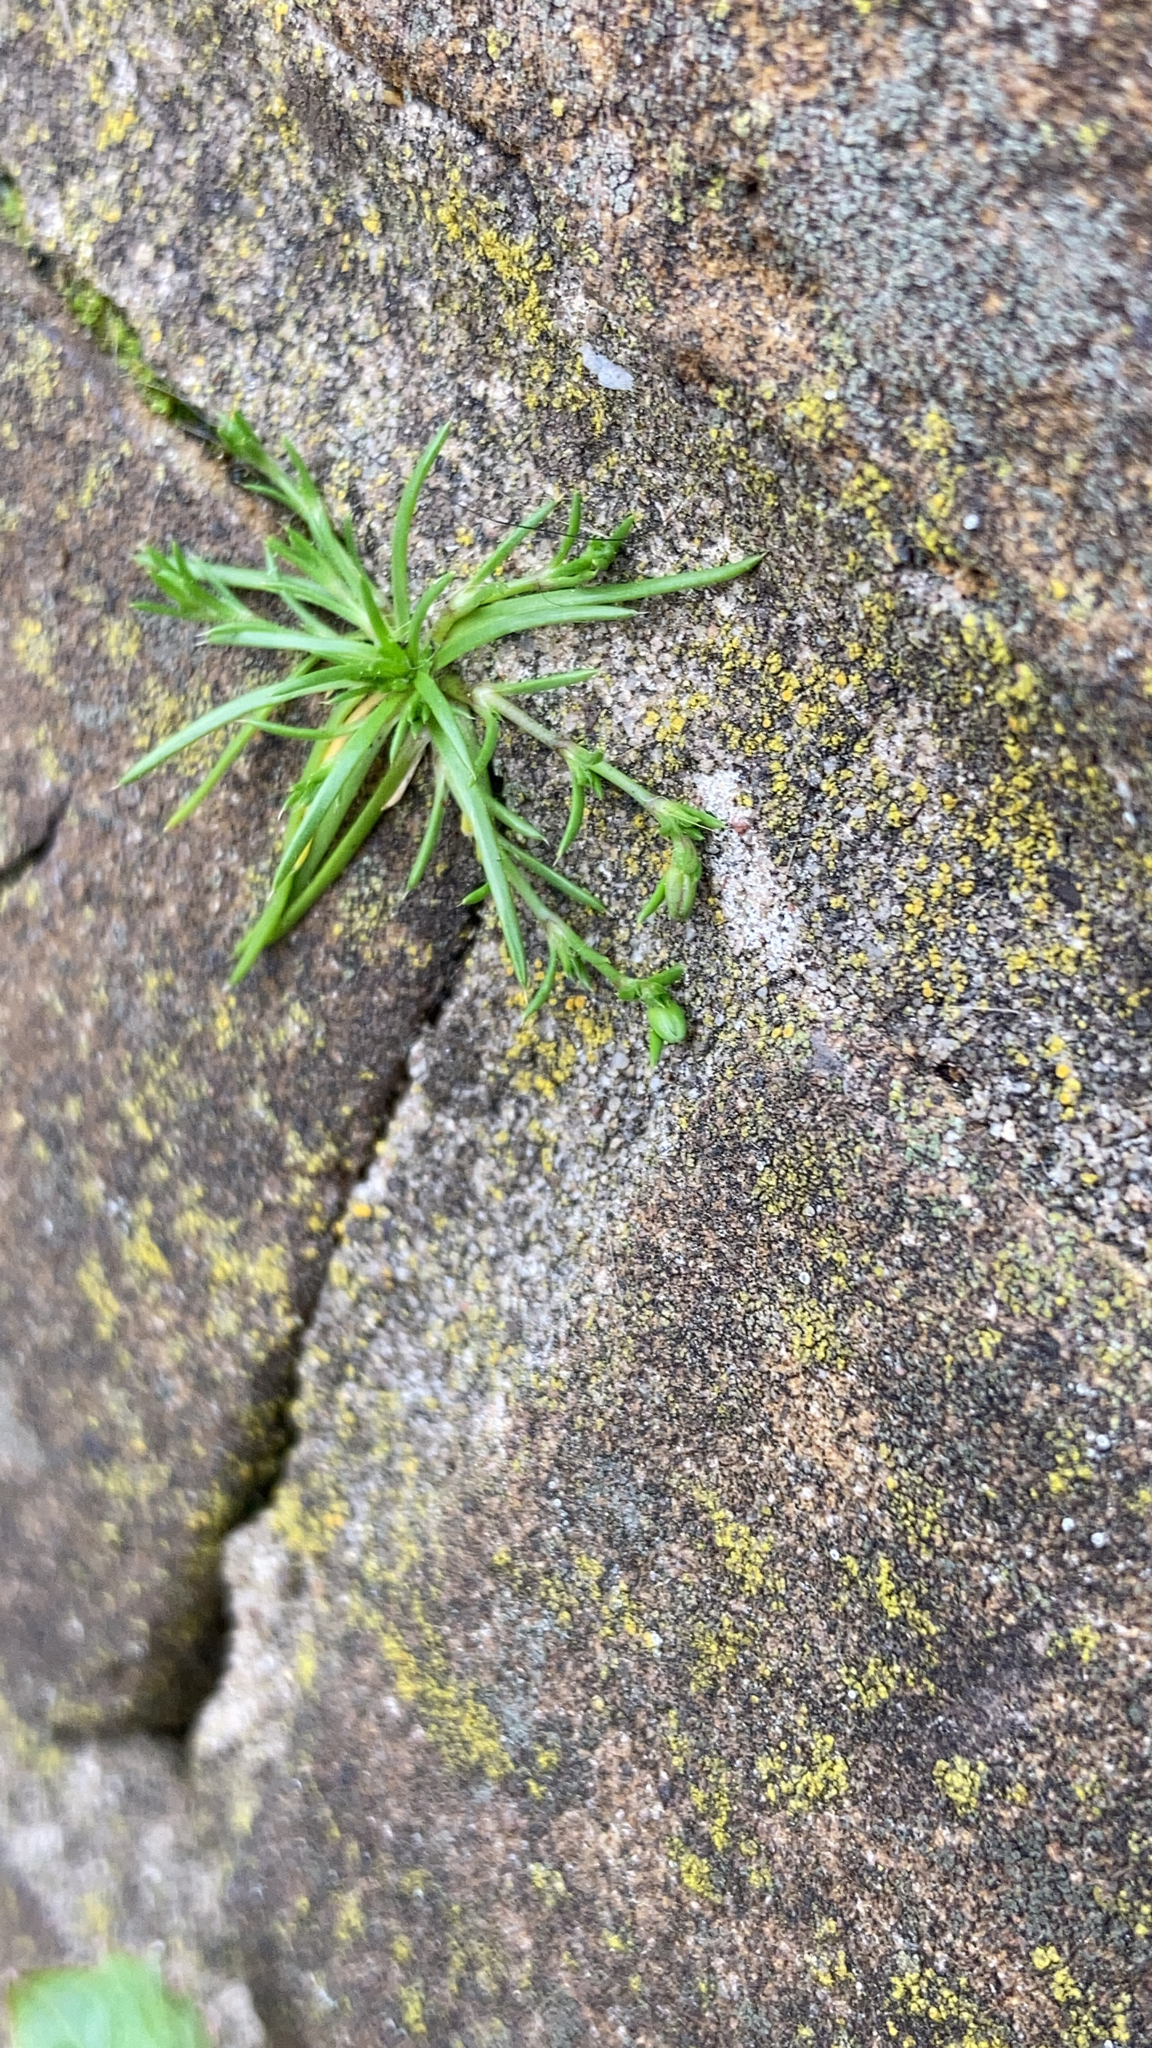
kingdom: Plantae
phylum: Tracheophyta
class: Magnoliopsida
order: Caryophyllales
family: Caryophyllaceae
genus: Sagina
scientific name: Sagina procumbens
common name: Procumbent pearlwort
